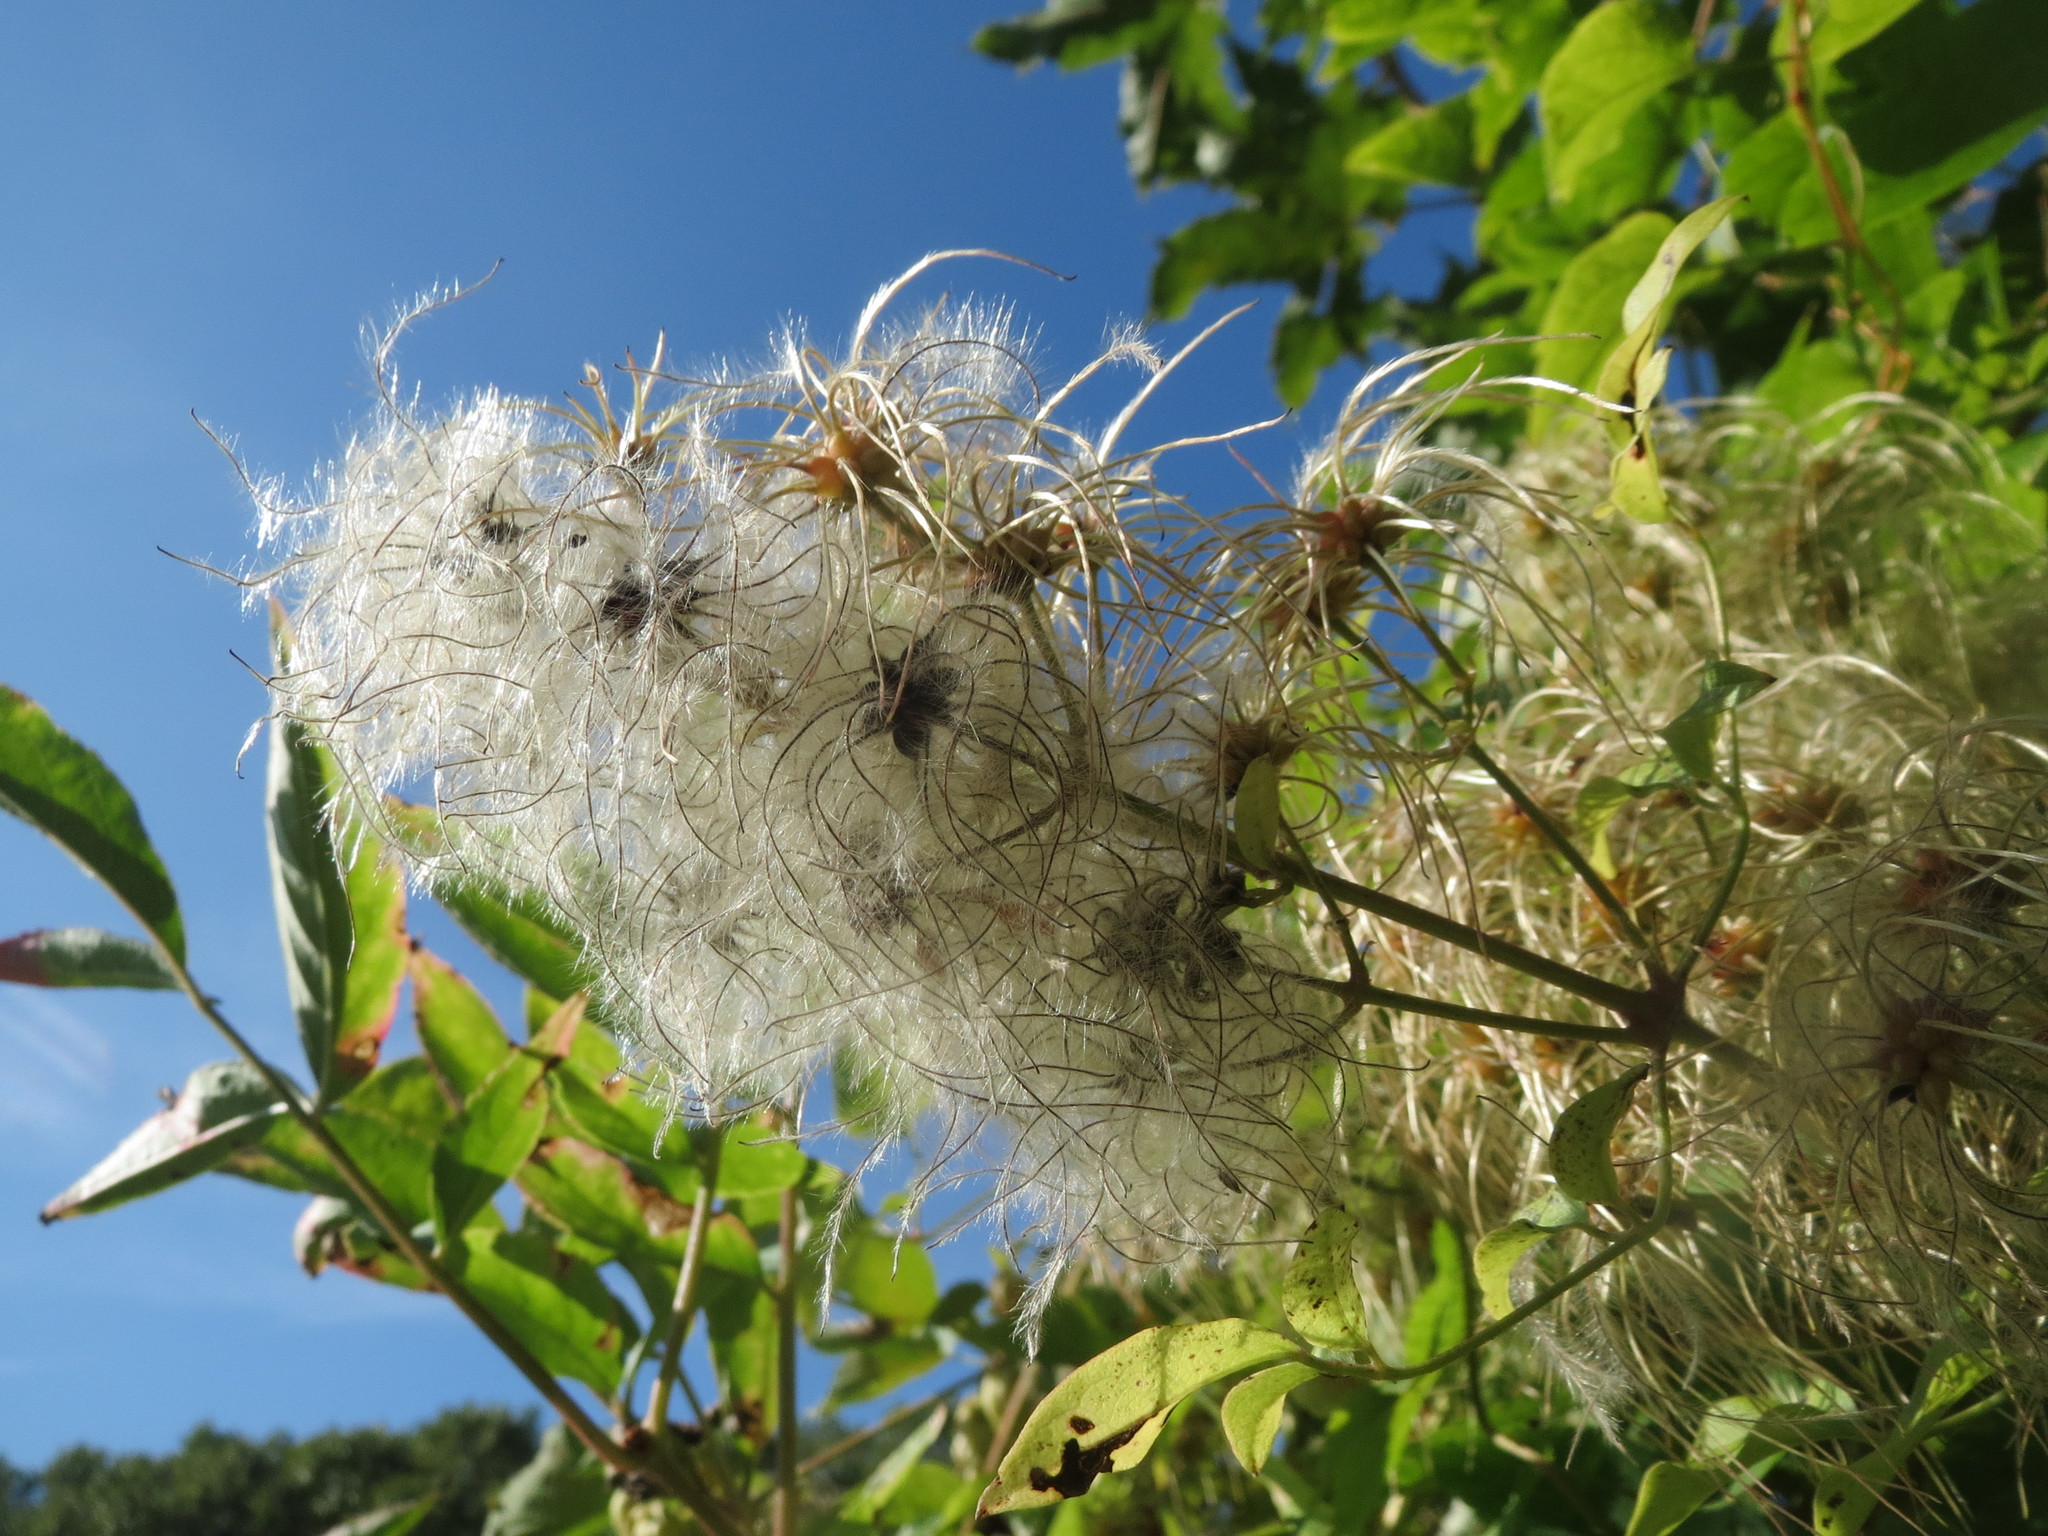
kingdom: Plantae
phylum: Tracheophyta
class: Magnoliopsida
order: Ranunculales
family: Ranunculaceae
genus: Clematis
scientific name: Clematis vitalba
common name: Evergreen clematis
